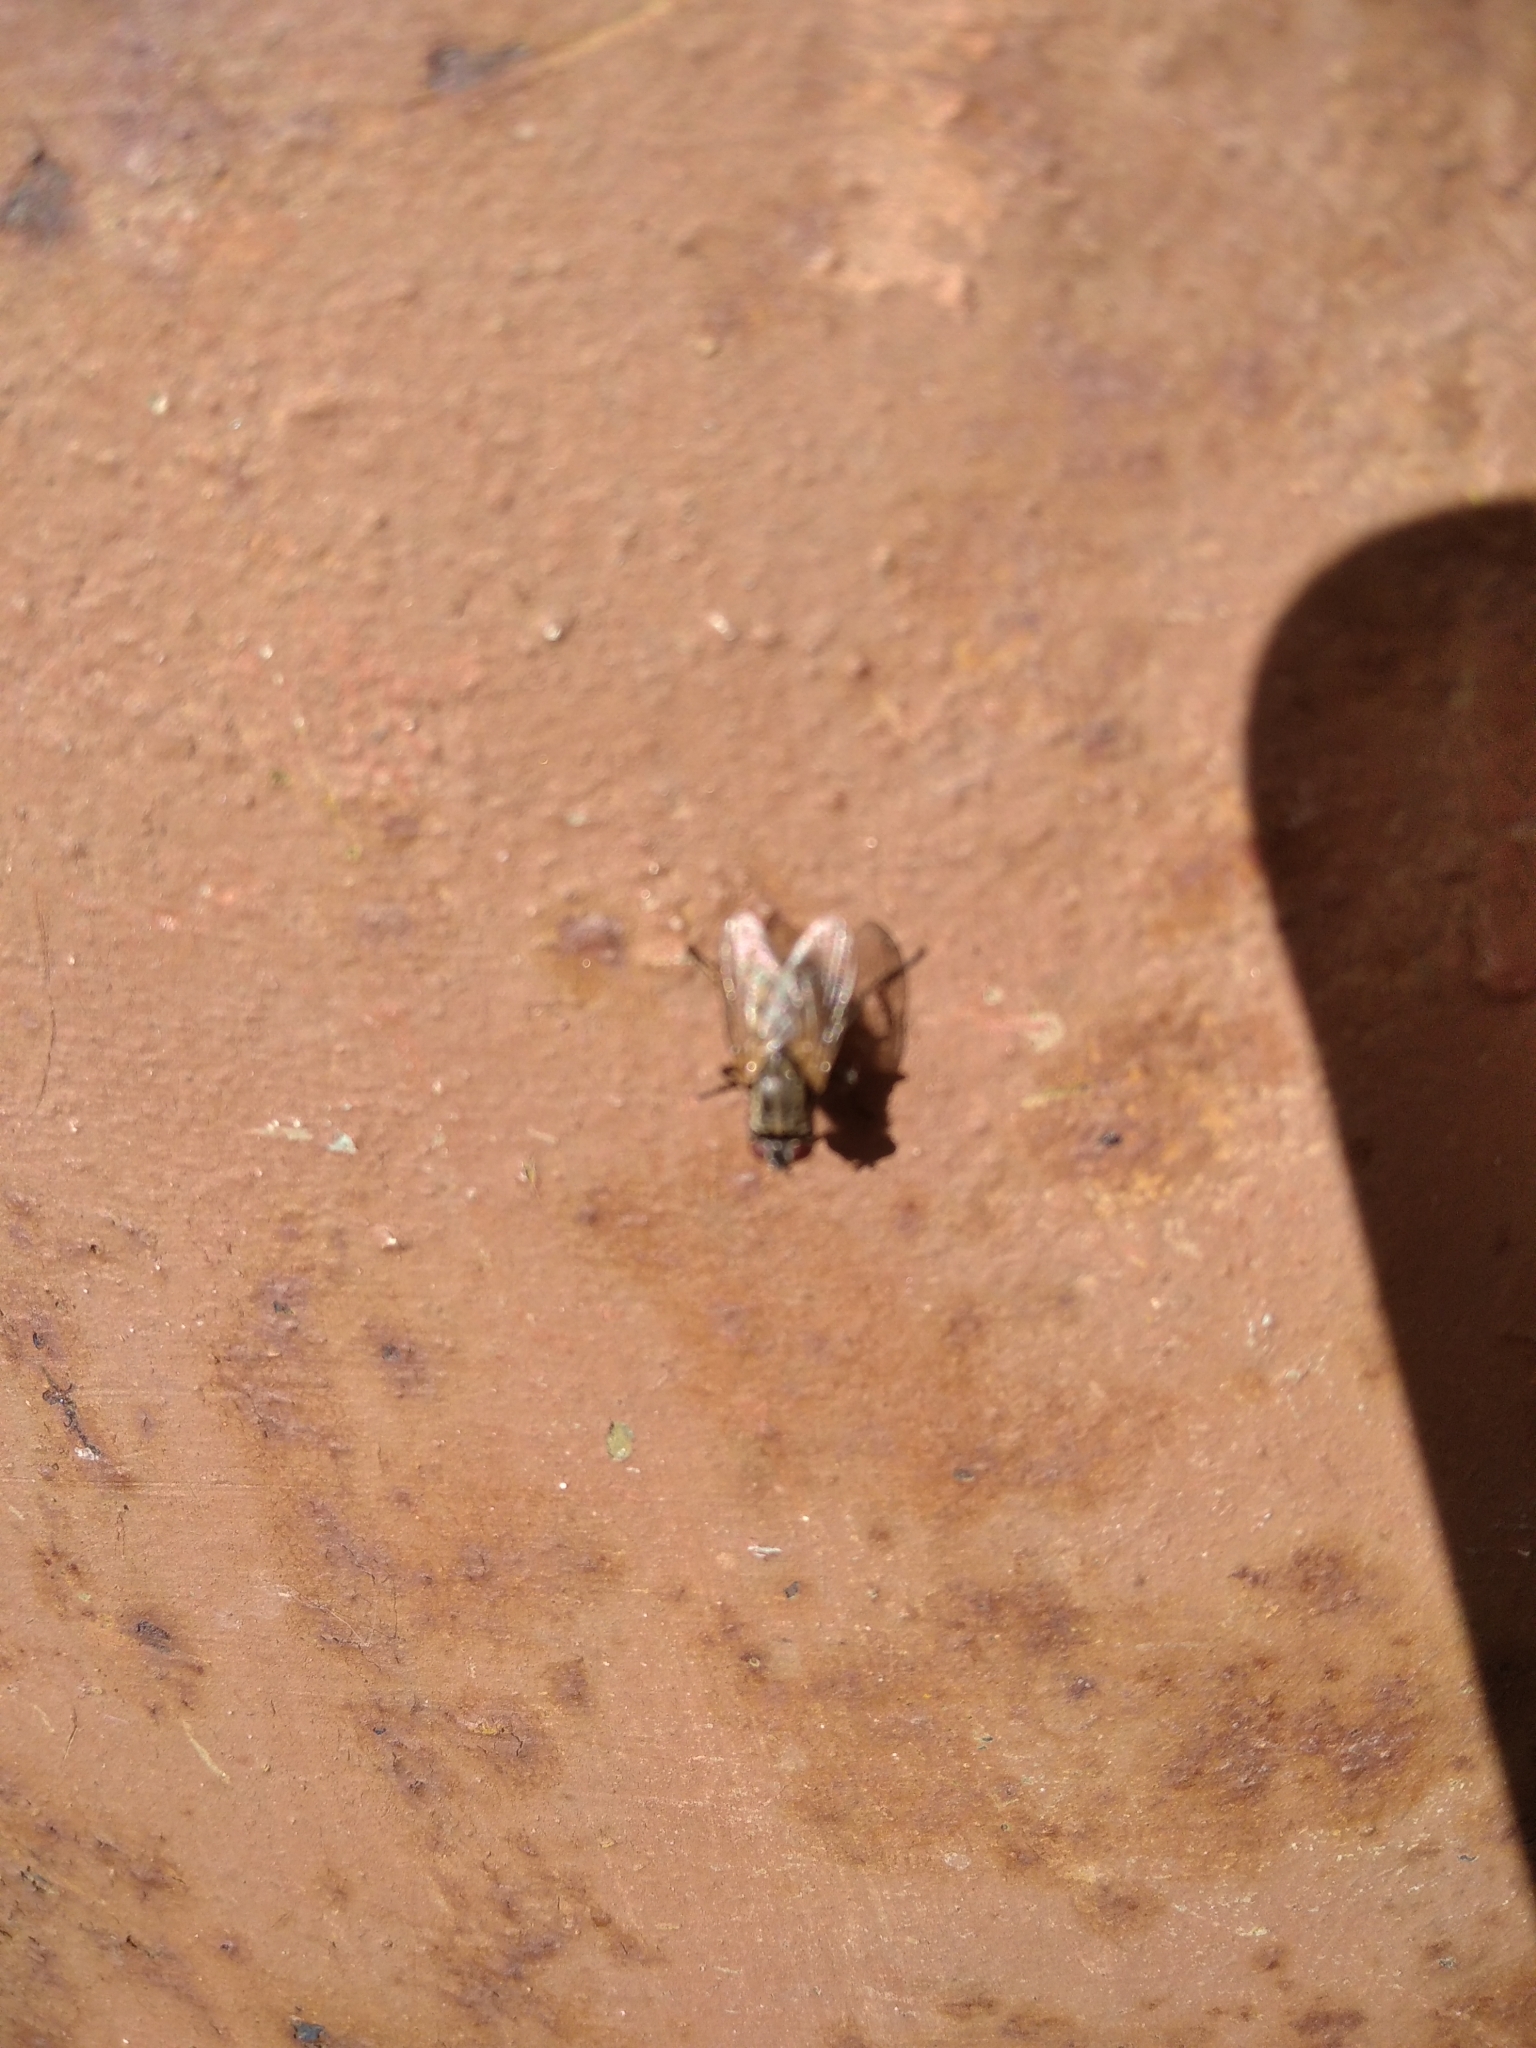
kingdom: Animalia
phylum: Arthropoda
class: Insecta
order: Diptera
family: Muscidae
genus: Musca
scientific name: Musca domestica
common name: House fly
